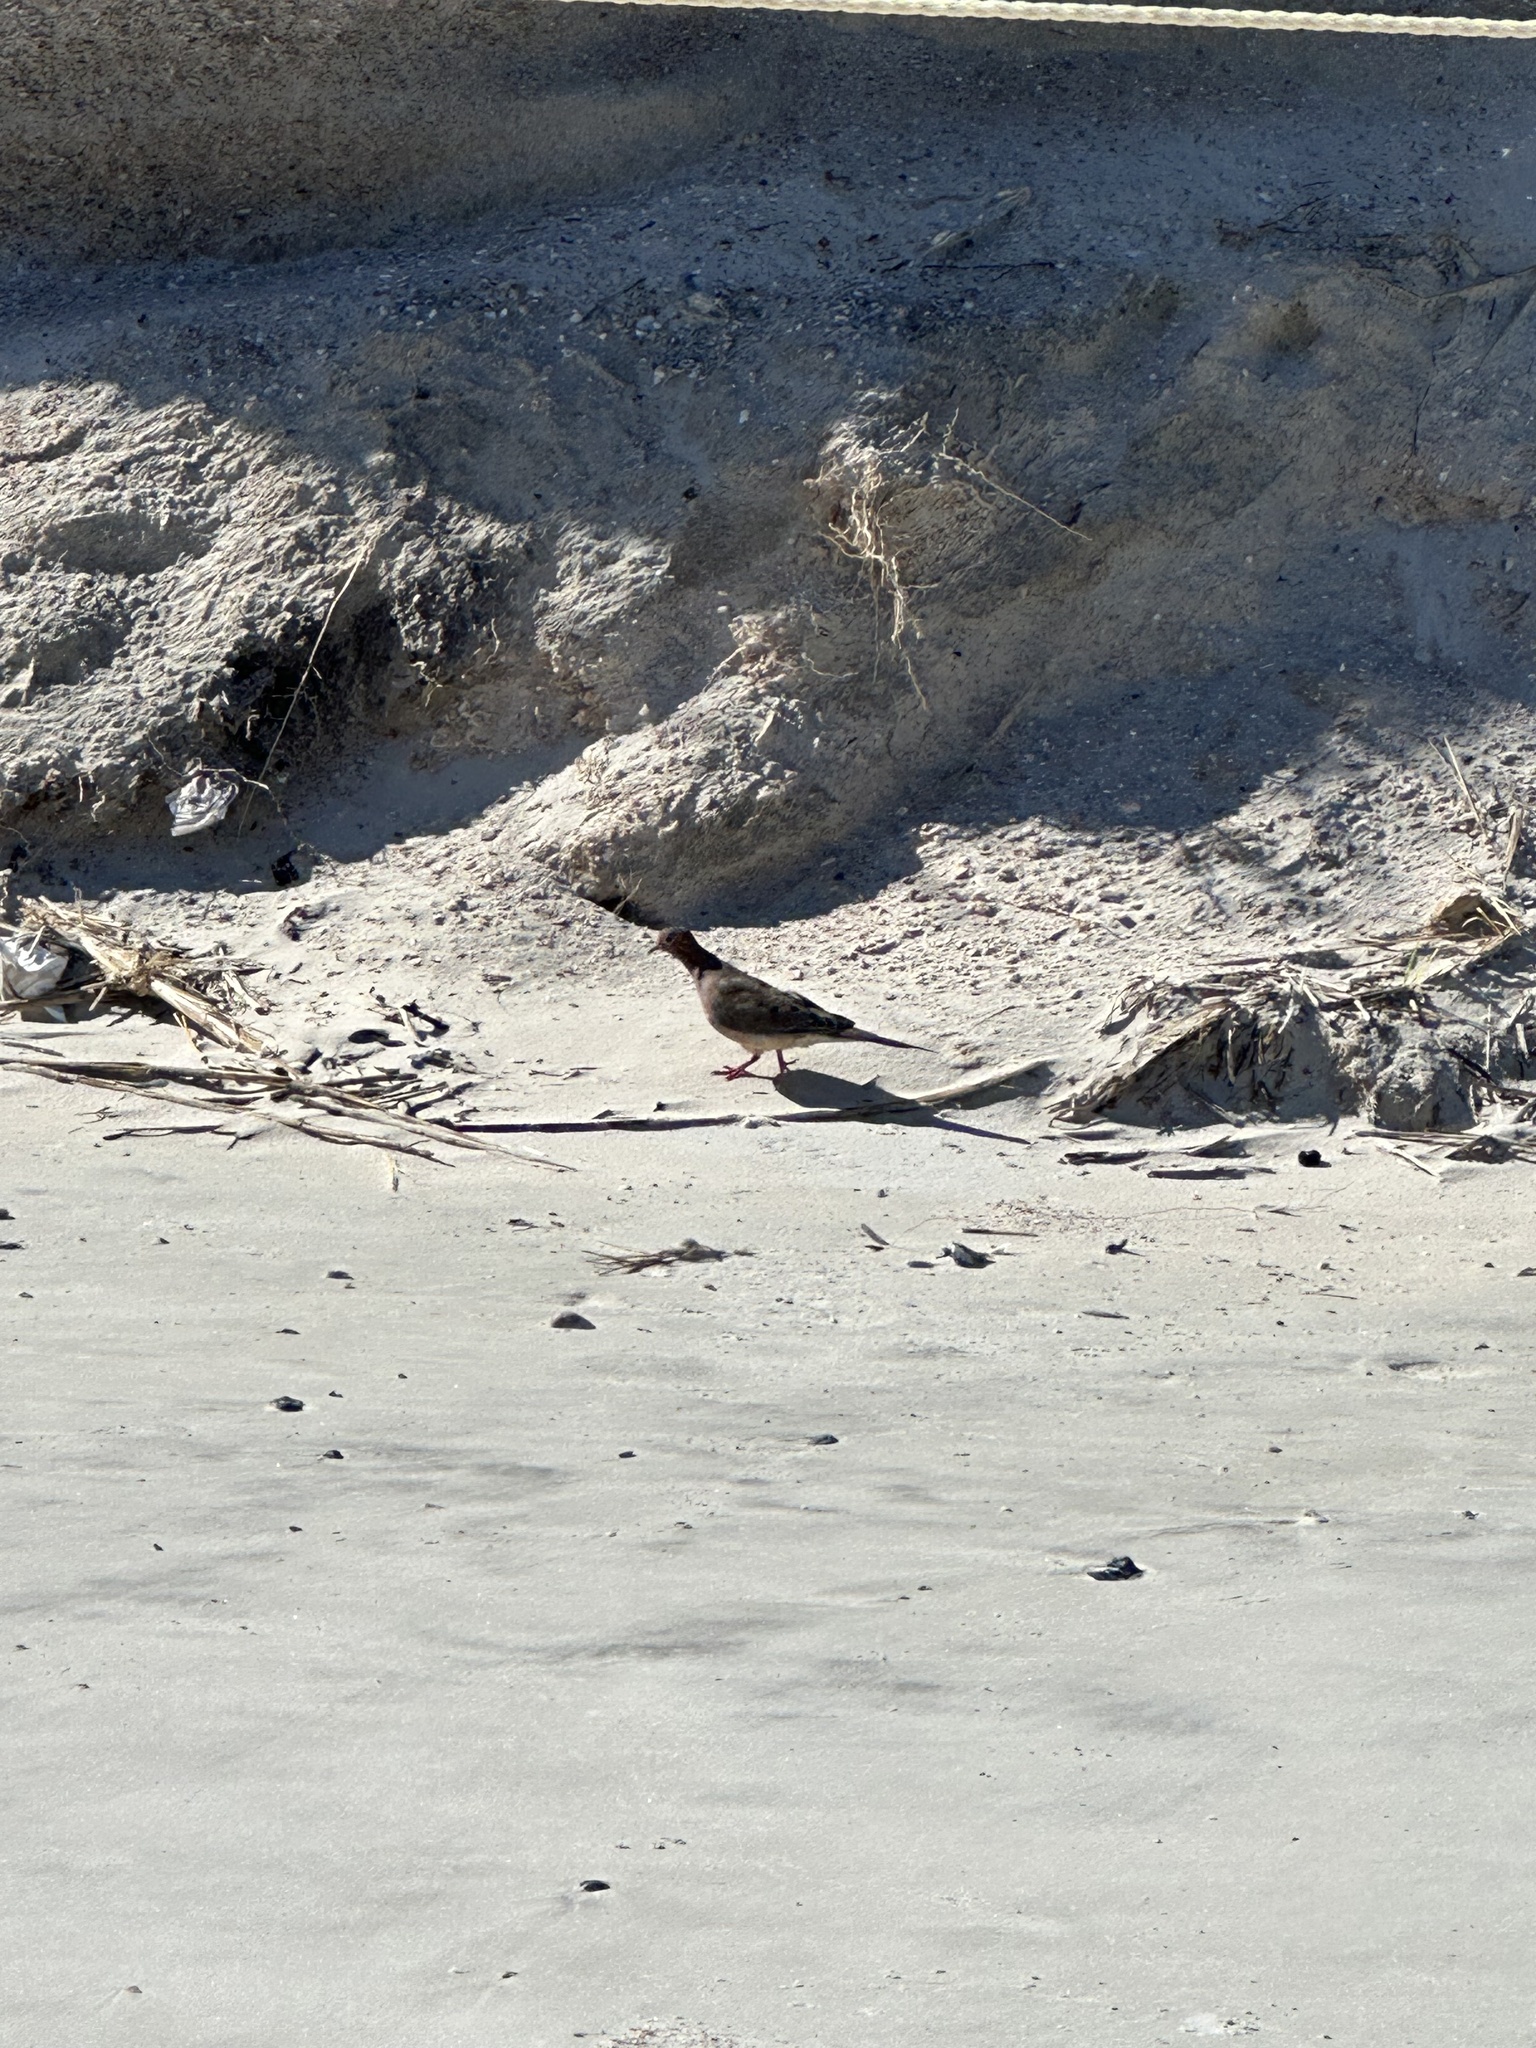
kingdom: Animalia
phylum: Chordata
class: Aves
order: Columbiformes
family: Columbidae
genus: Zenaida
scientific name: Zenaida macroura
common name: Mourning dove
